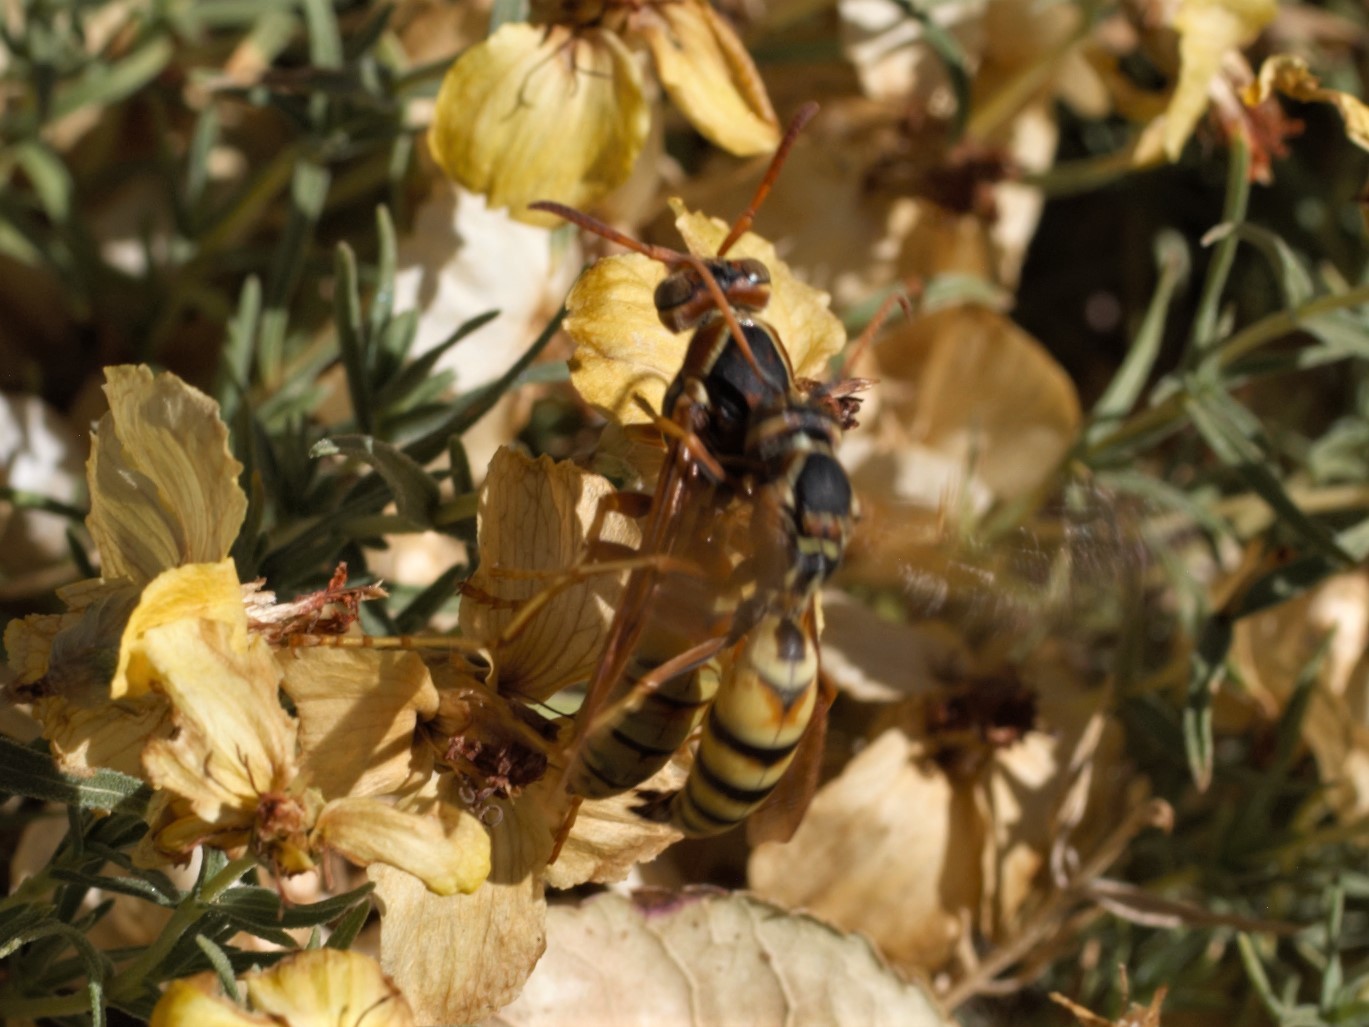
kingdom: Animalia
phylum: Arthropoda
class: Insecta
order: Hymenoptera
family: Eumenidae
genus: Polistes
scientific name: Polistes aurifer
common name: Paper wasp
